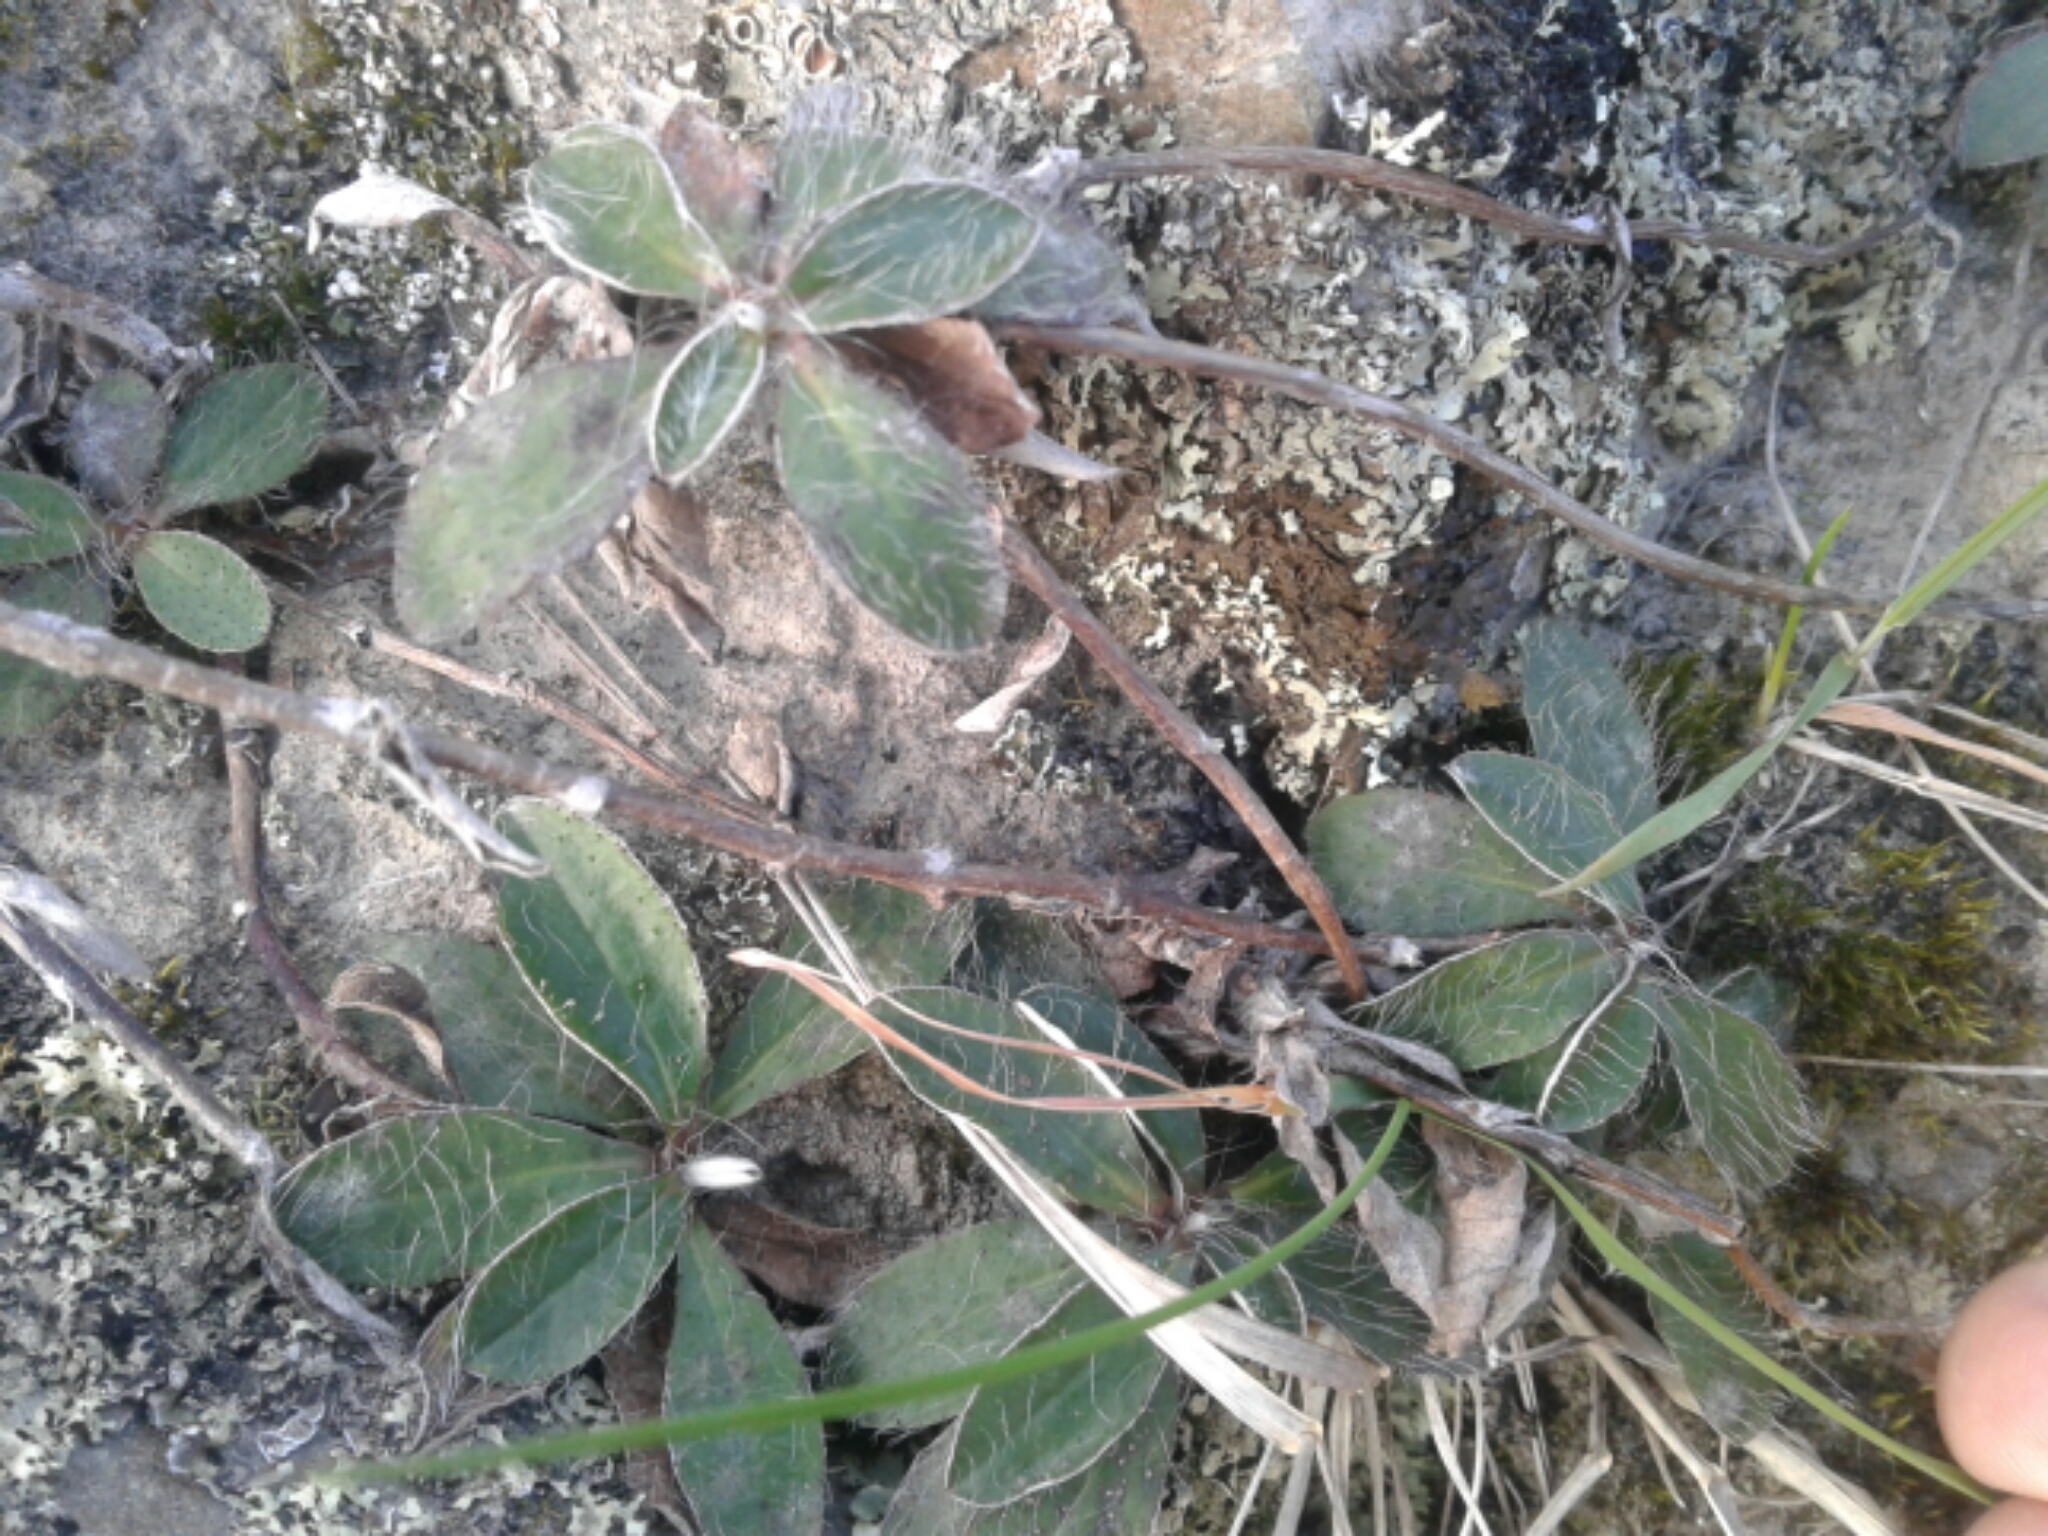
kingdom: Plantae
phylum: Tracheophyta
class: Magnoliopsida
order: Asterales
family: Asteraceae
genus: Pilosella
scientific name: Pilosella officinarum
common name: Mouse-ear hawkweed
